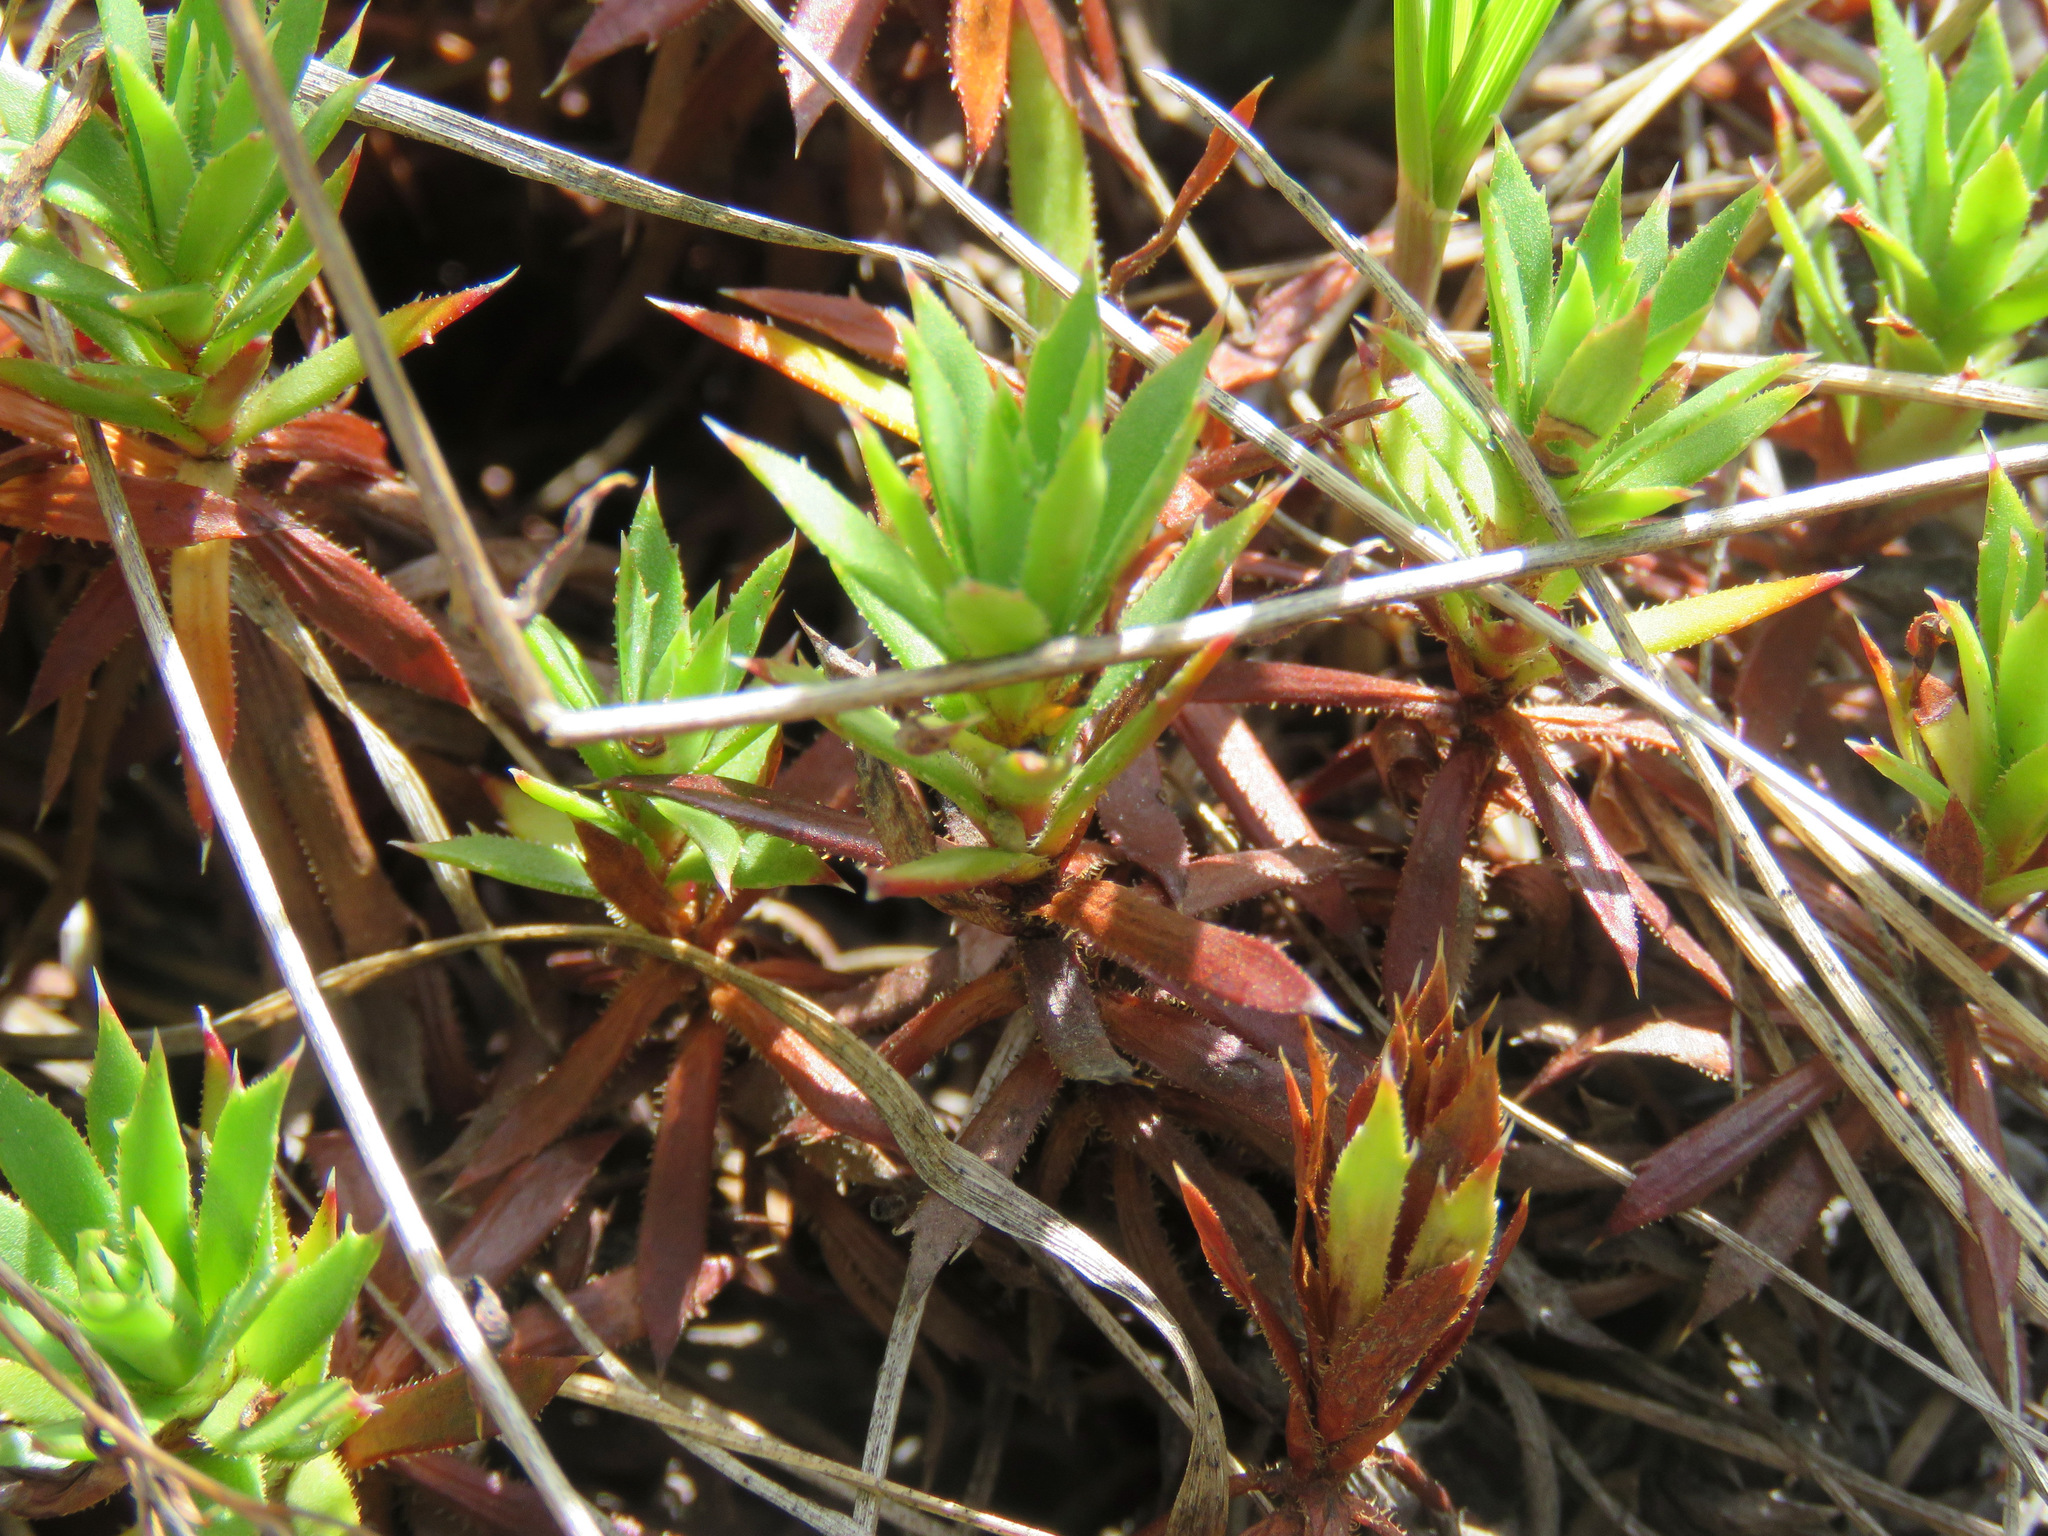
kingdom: Plantae
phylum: Tracheophyta
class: Magnoliopsida
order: Saxifragales
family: Saxifragaceae
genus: Saxifraga
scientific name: Saxifraga tricuspidata
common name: Prickly saxifrage
